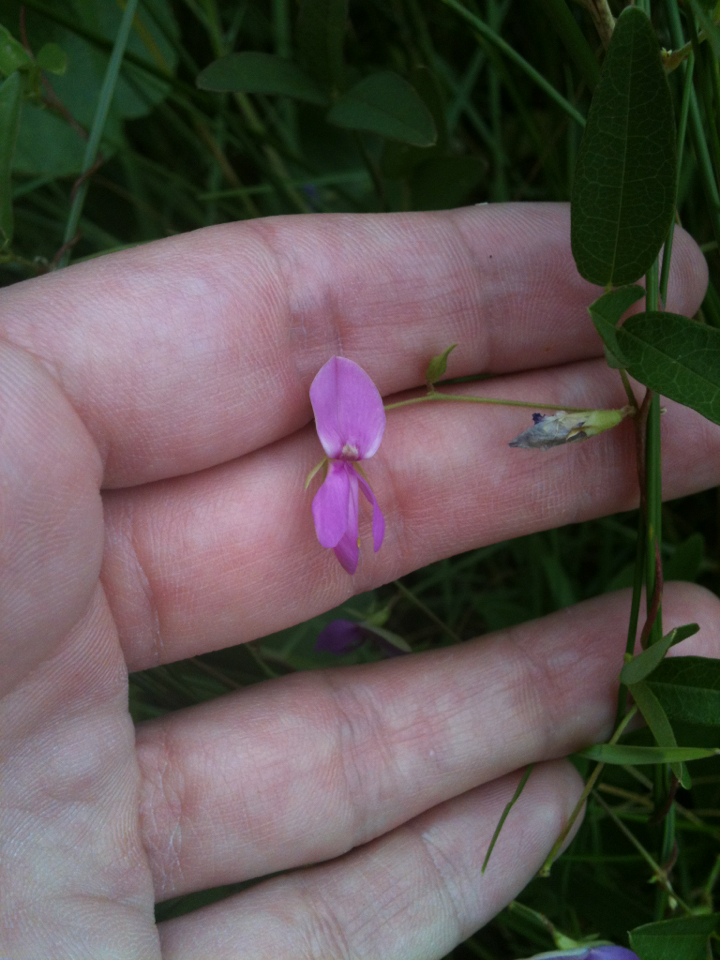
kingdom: Plantae
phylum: Tracheophyta
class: Magnoliopsida
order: Fabales
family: Fabaceae
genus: Galactia
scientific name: Galactia regularis
